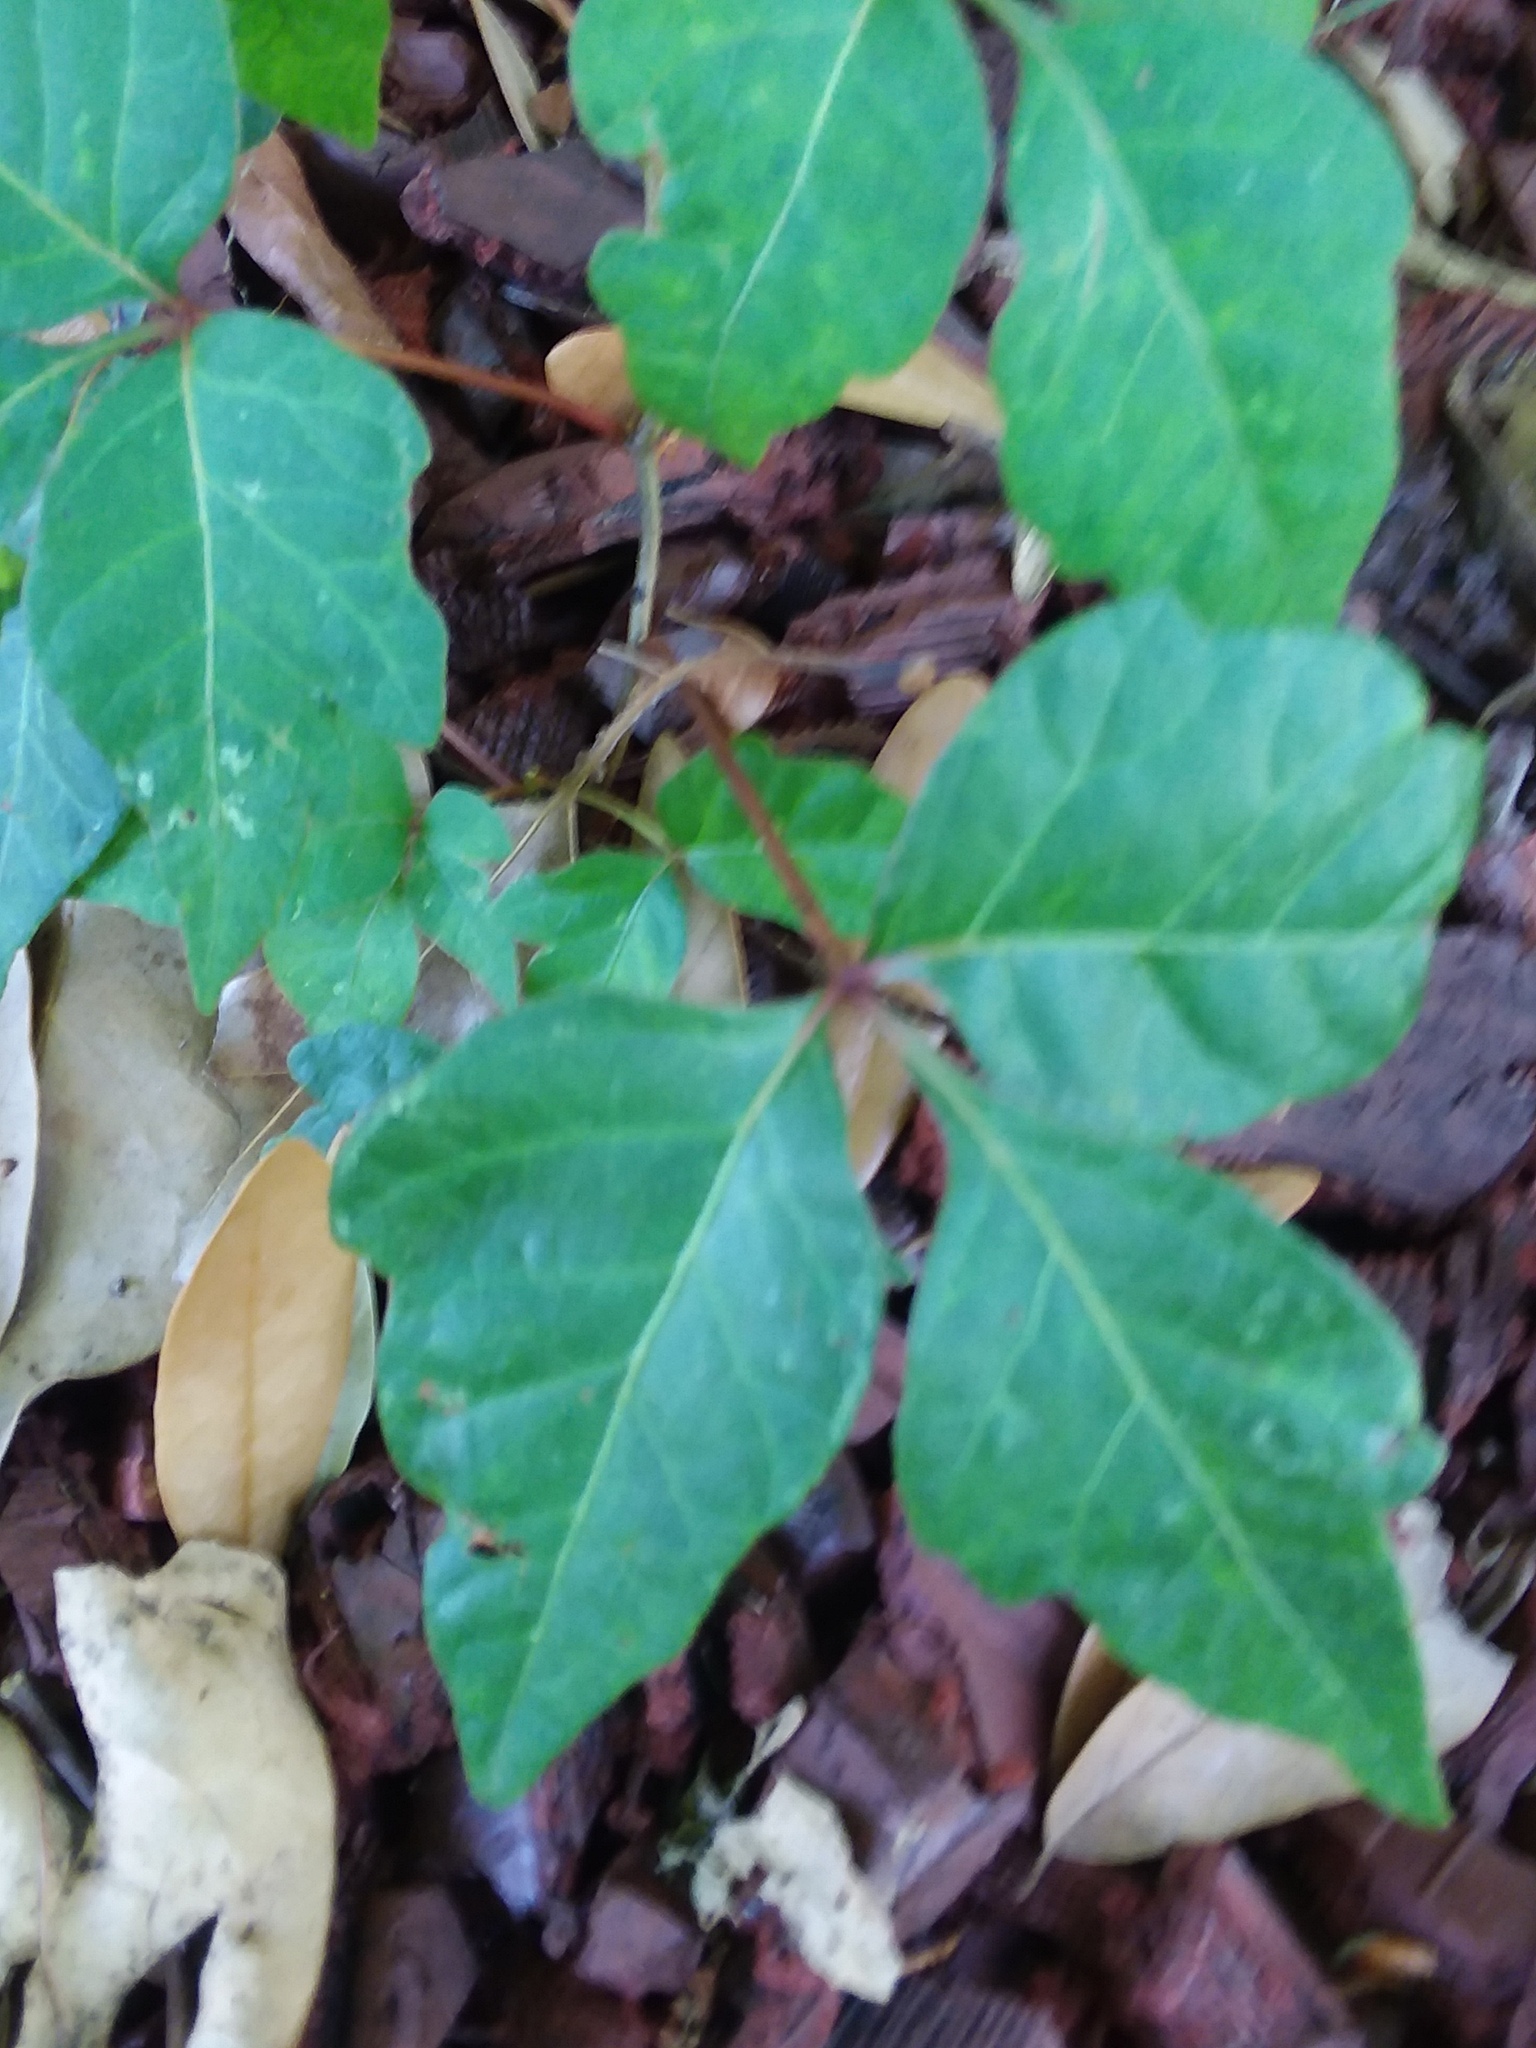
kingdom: Plantae
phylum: Tracheophyta
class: Magnoliopsida
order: Sapindales
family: Anacardiaceae
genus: Toxicodendron
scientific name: Toxicodendron radicans
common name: Poison ivy
